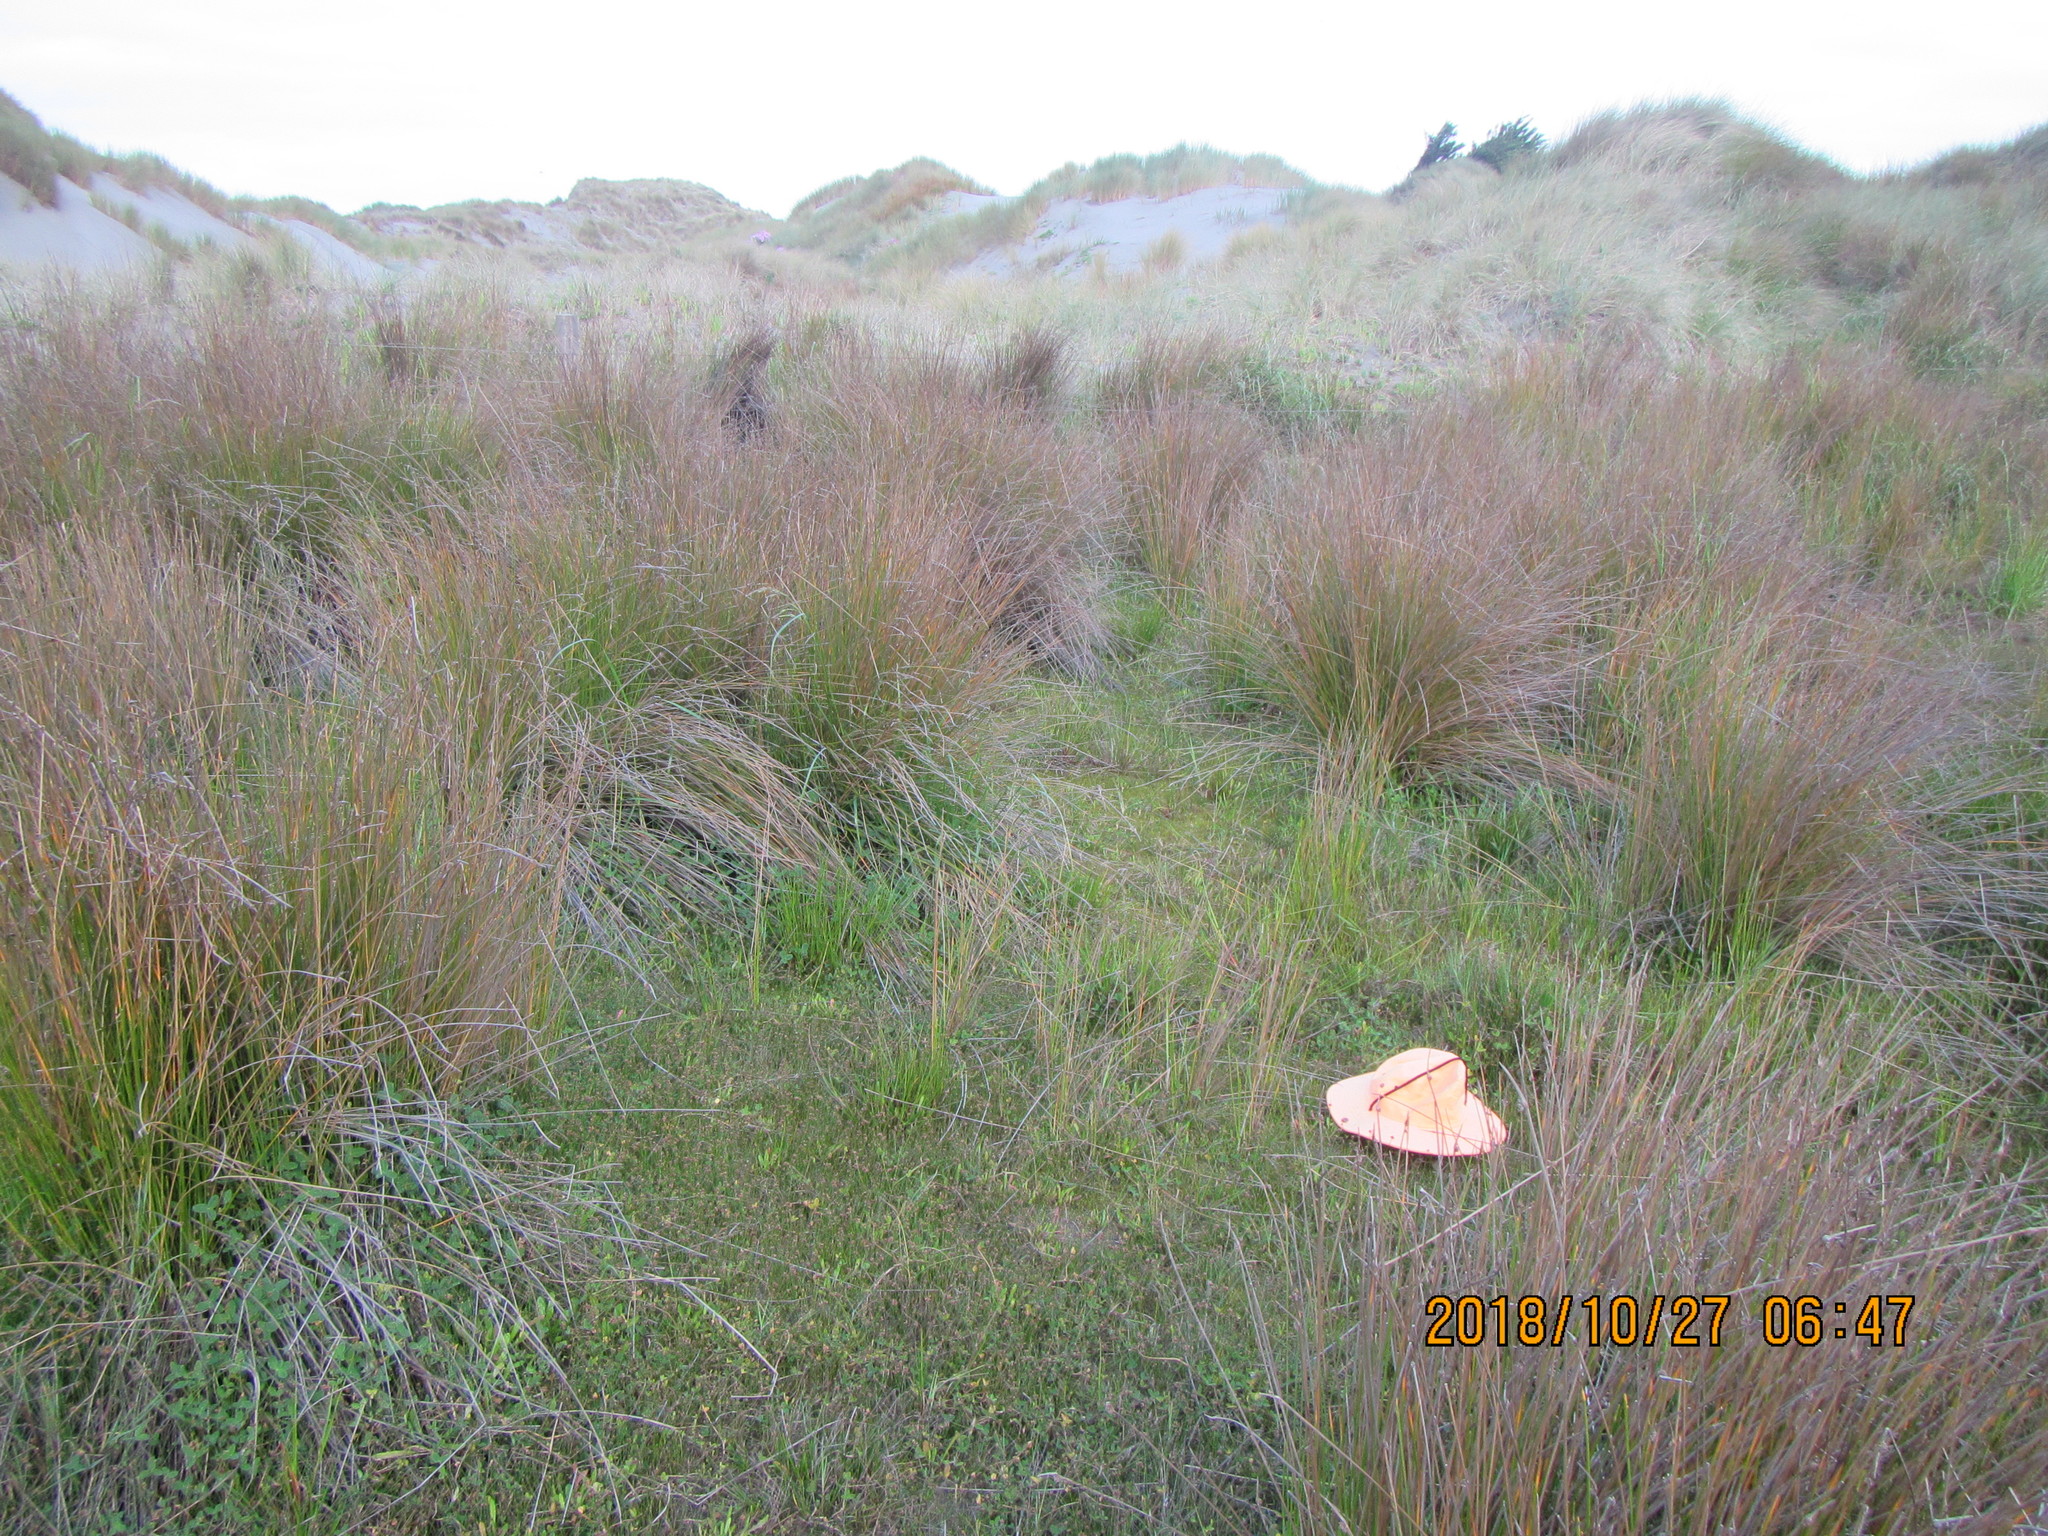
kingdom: Plantae
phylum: Tracheophyta
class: Magnoliopsida
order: Asterales
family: Goodeniaceae
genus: Goodenia
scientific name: Goodenia heenanii
